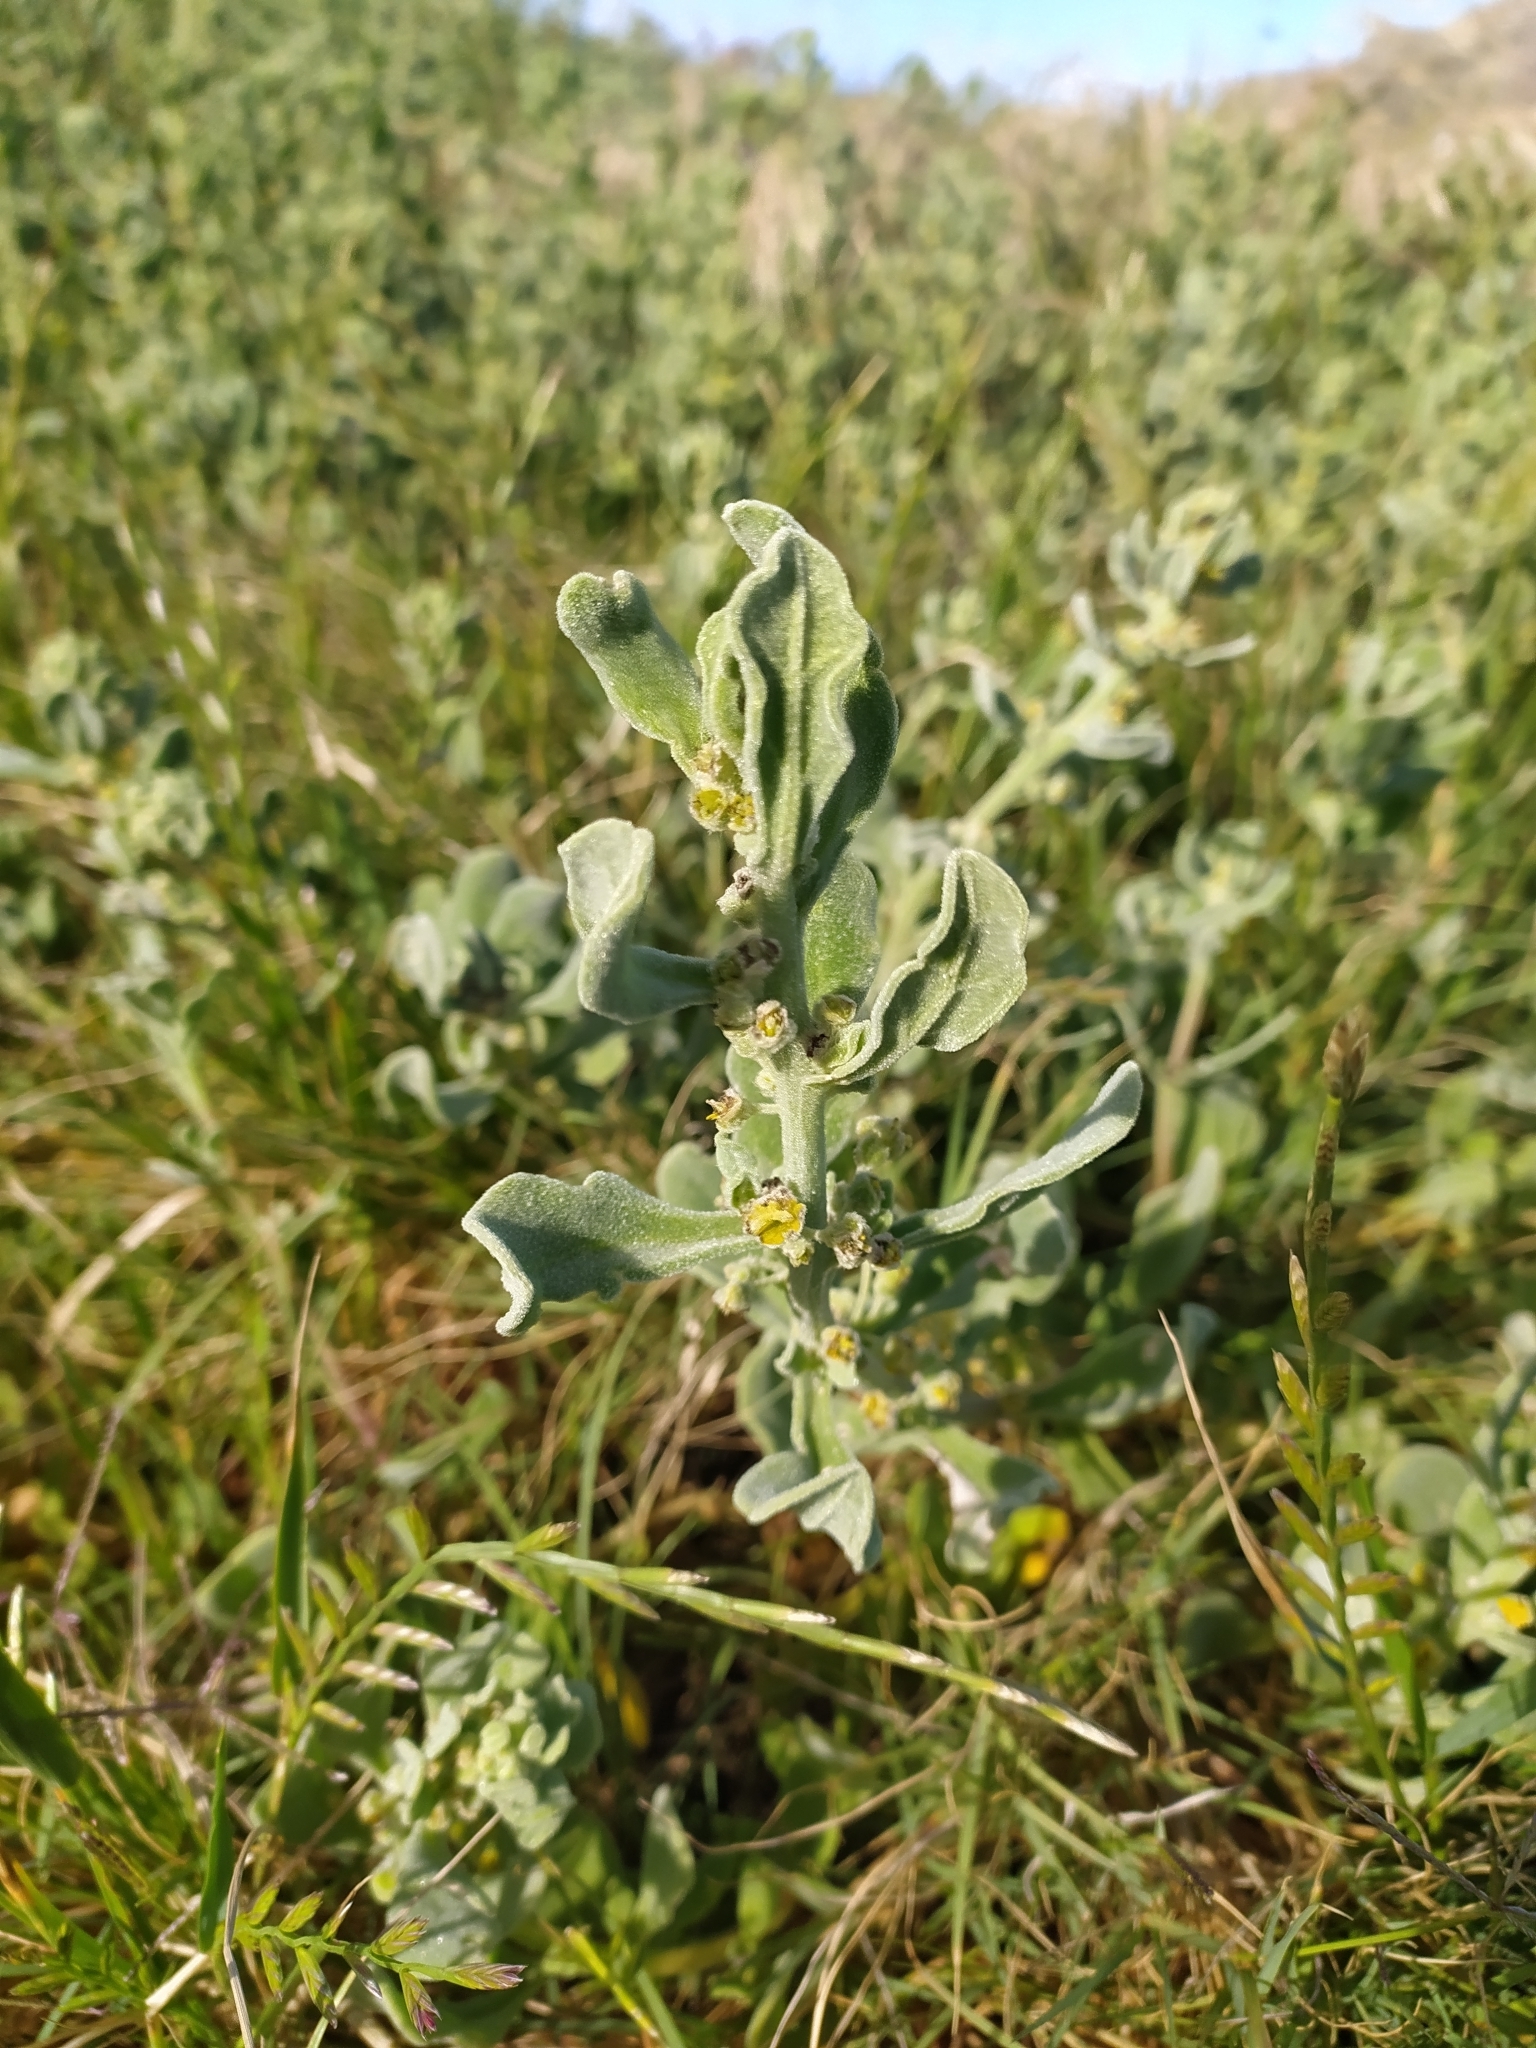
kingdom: Plantae
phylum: Tracheophyta
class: Magnoliopsida
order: Caryophyllales
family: Aizoaceae
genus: Tetragonia
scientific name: Tetragonia decumbens
